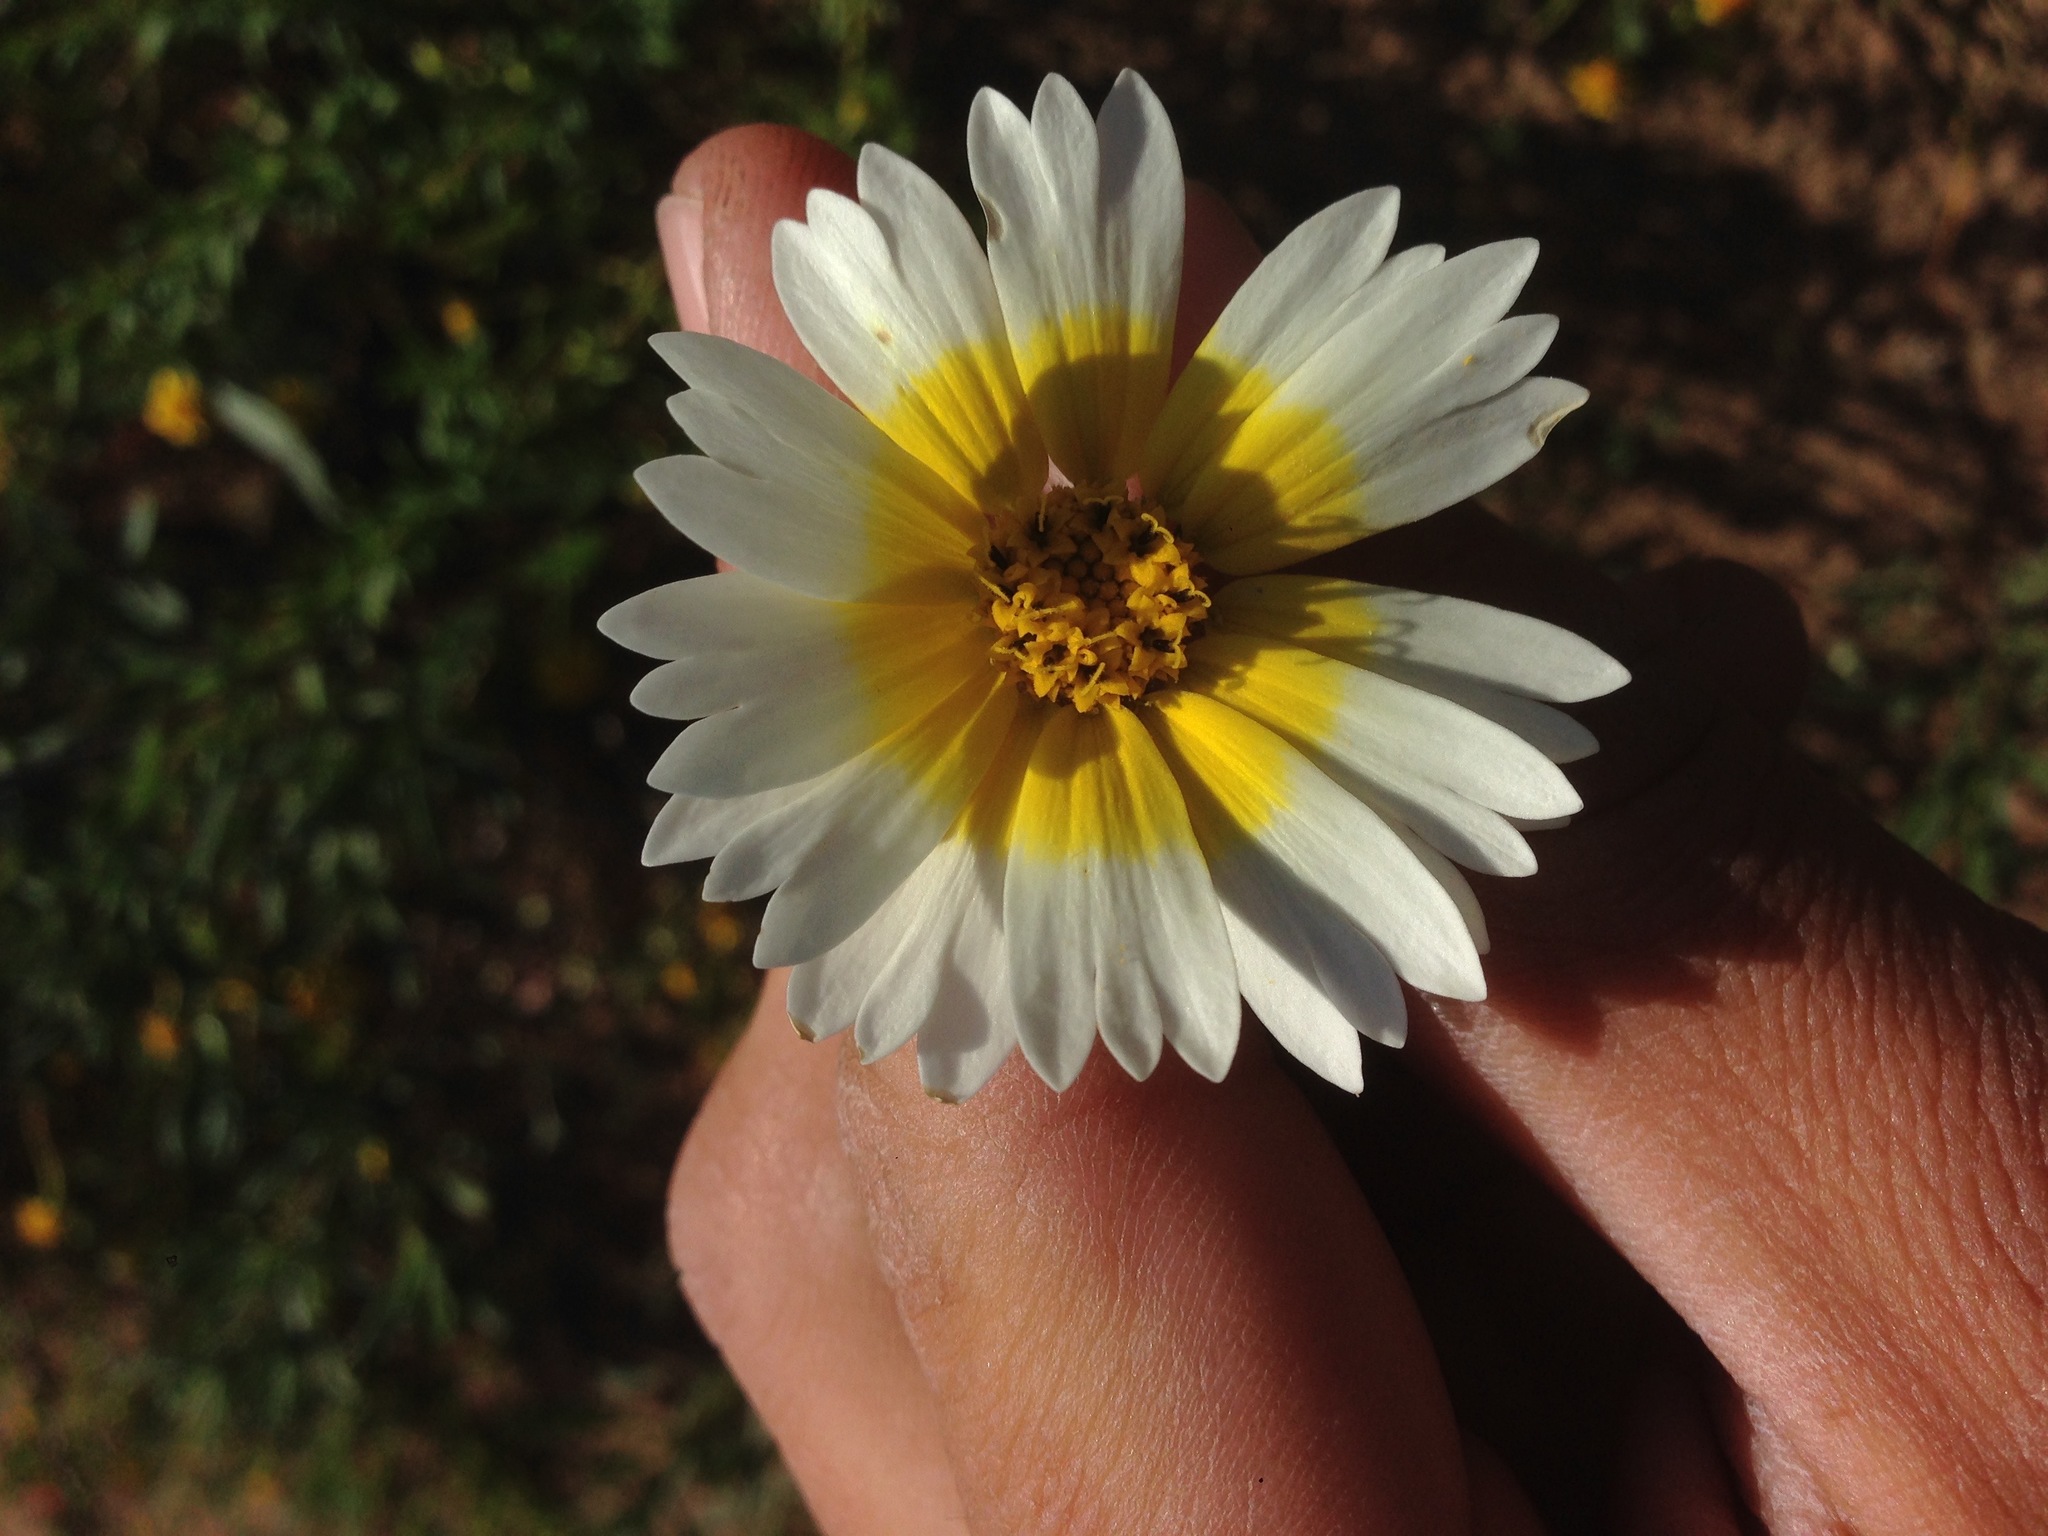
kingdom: Plantae
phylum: Tracheophyta
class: Magnoliopsida
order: Asterales
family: Asteraceae
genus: Layia
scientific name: Layia platyglossa
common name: Tidy-tips
